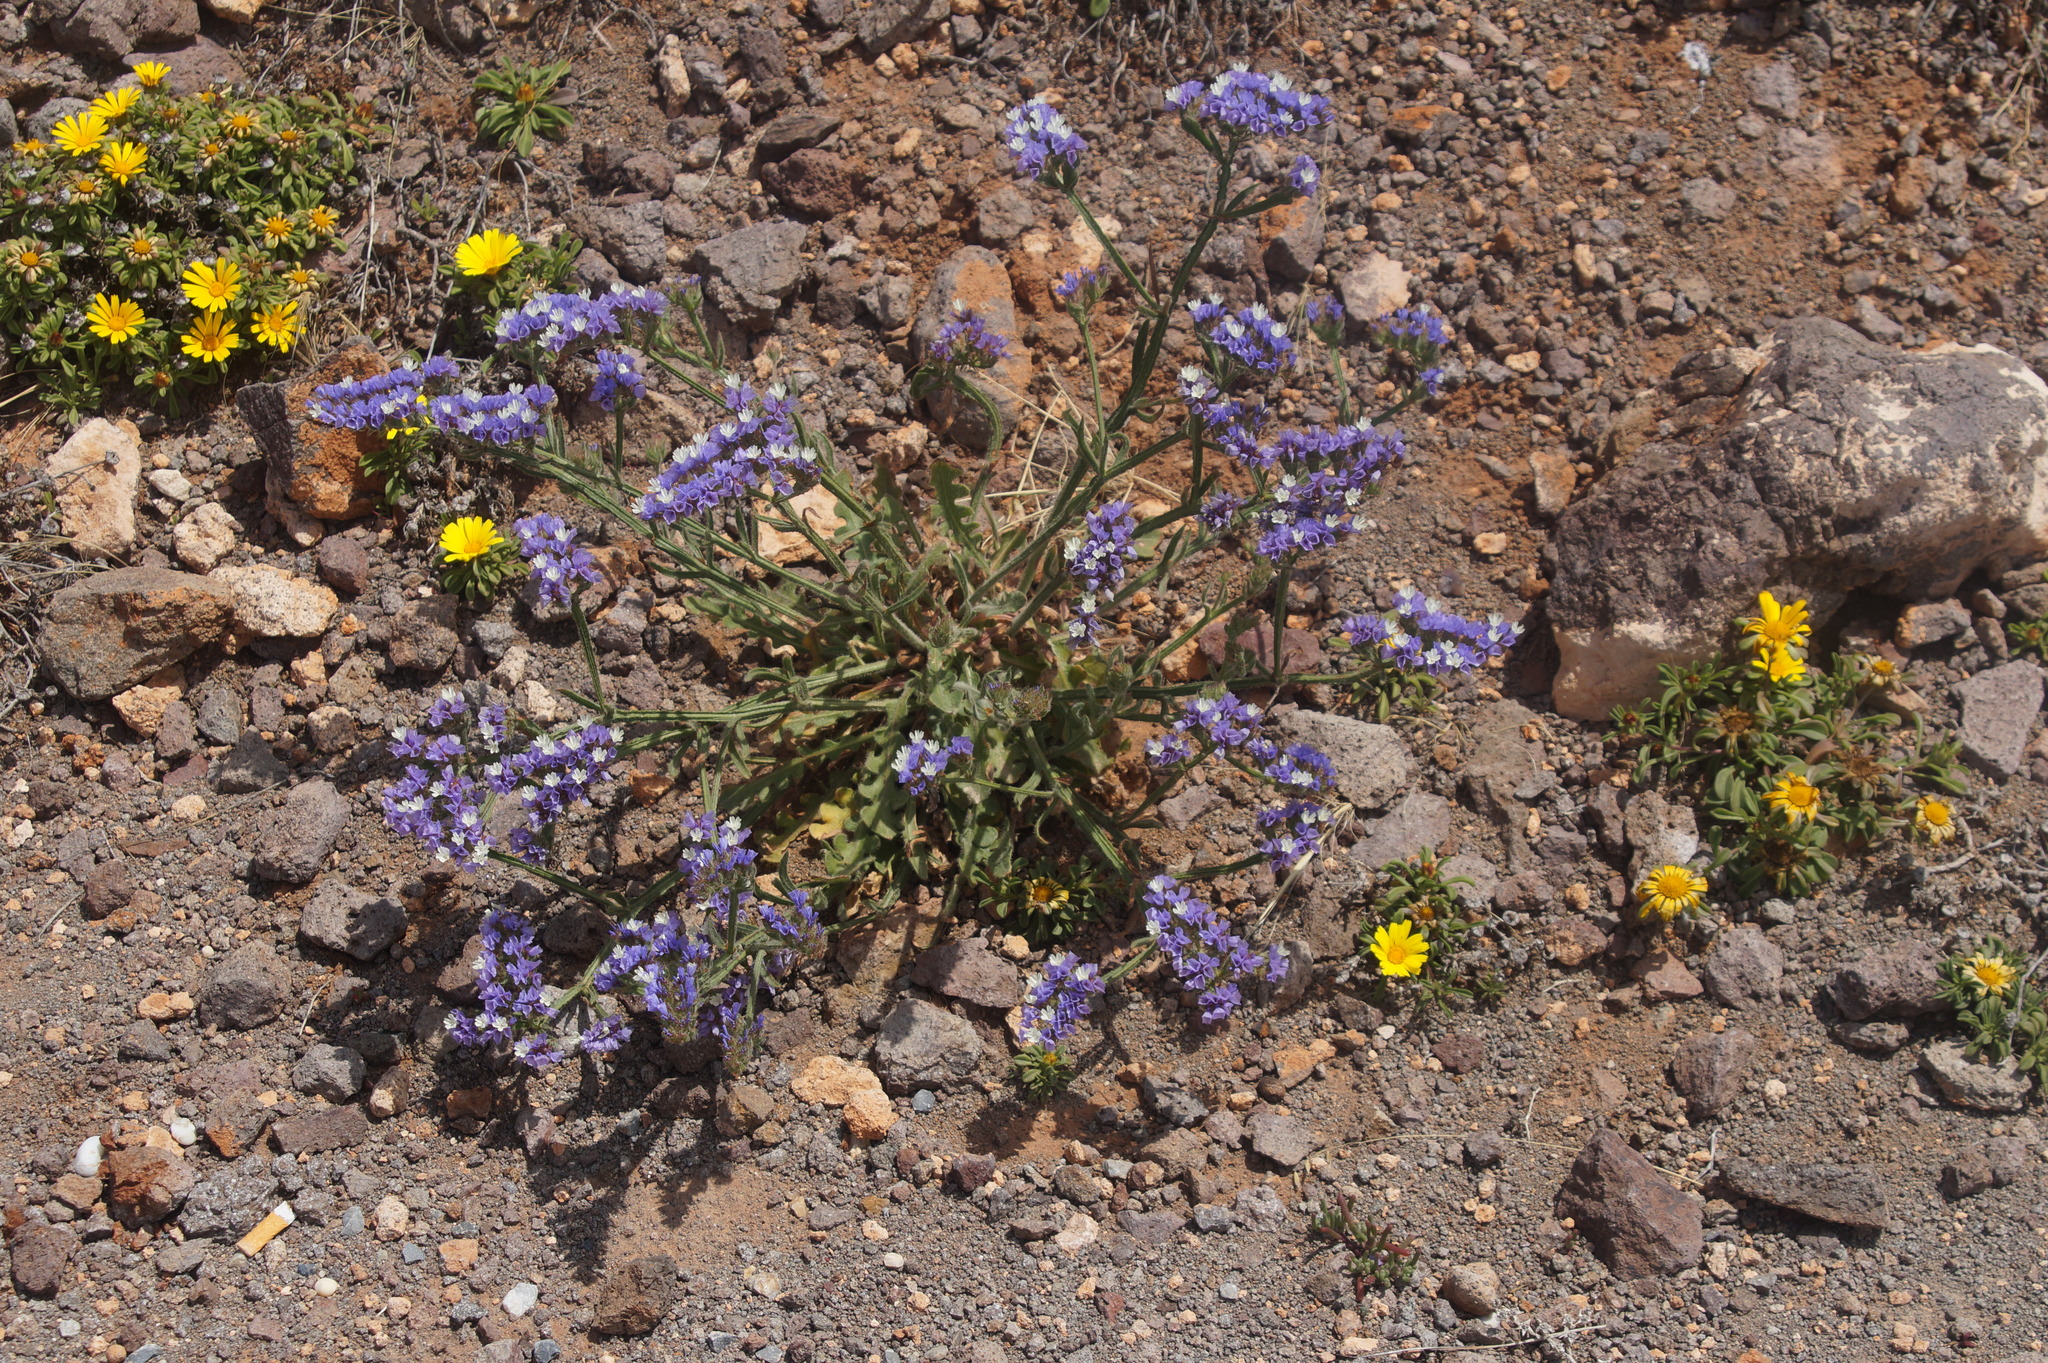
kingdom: Plantae
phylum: Tracheophyta
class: Magnoliopsida
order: Caryophyllales
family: Plumbaginaceae
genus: Limonium
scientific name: Limonium sinuatum
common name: Statice
